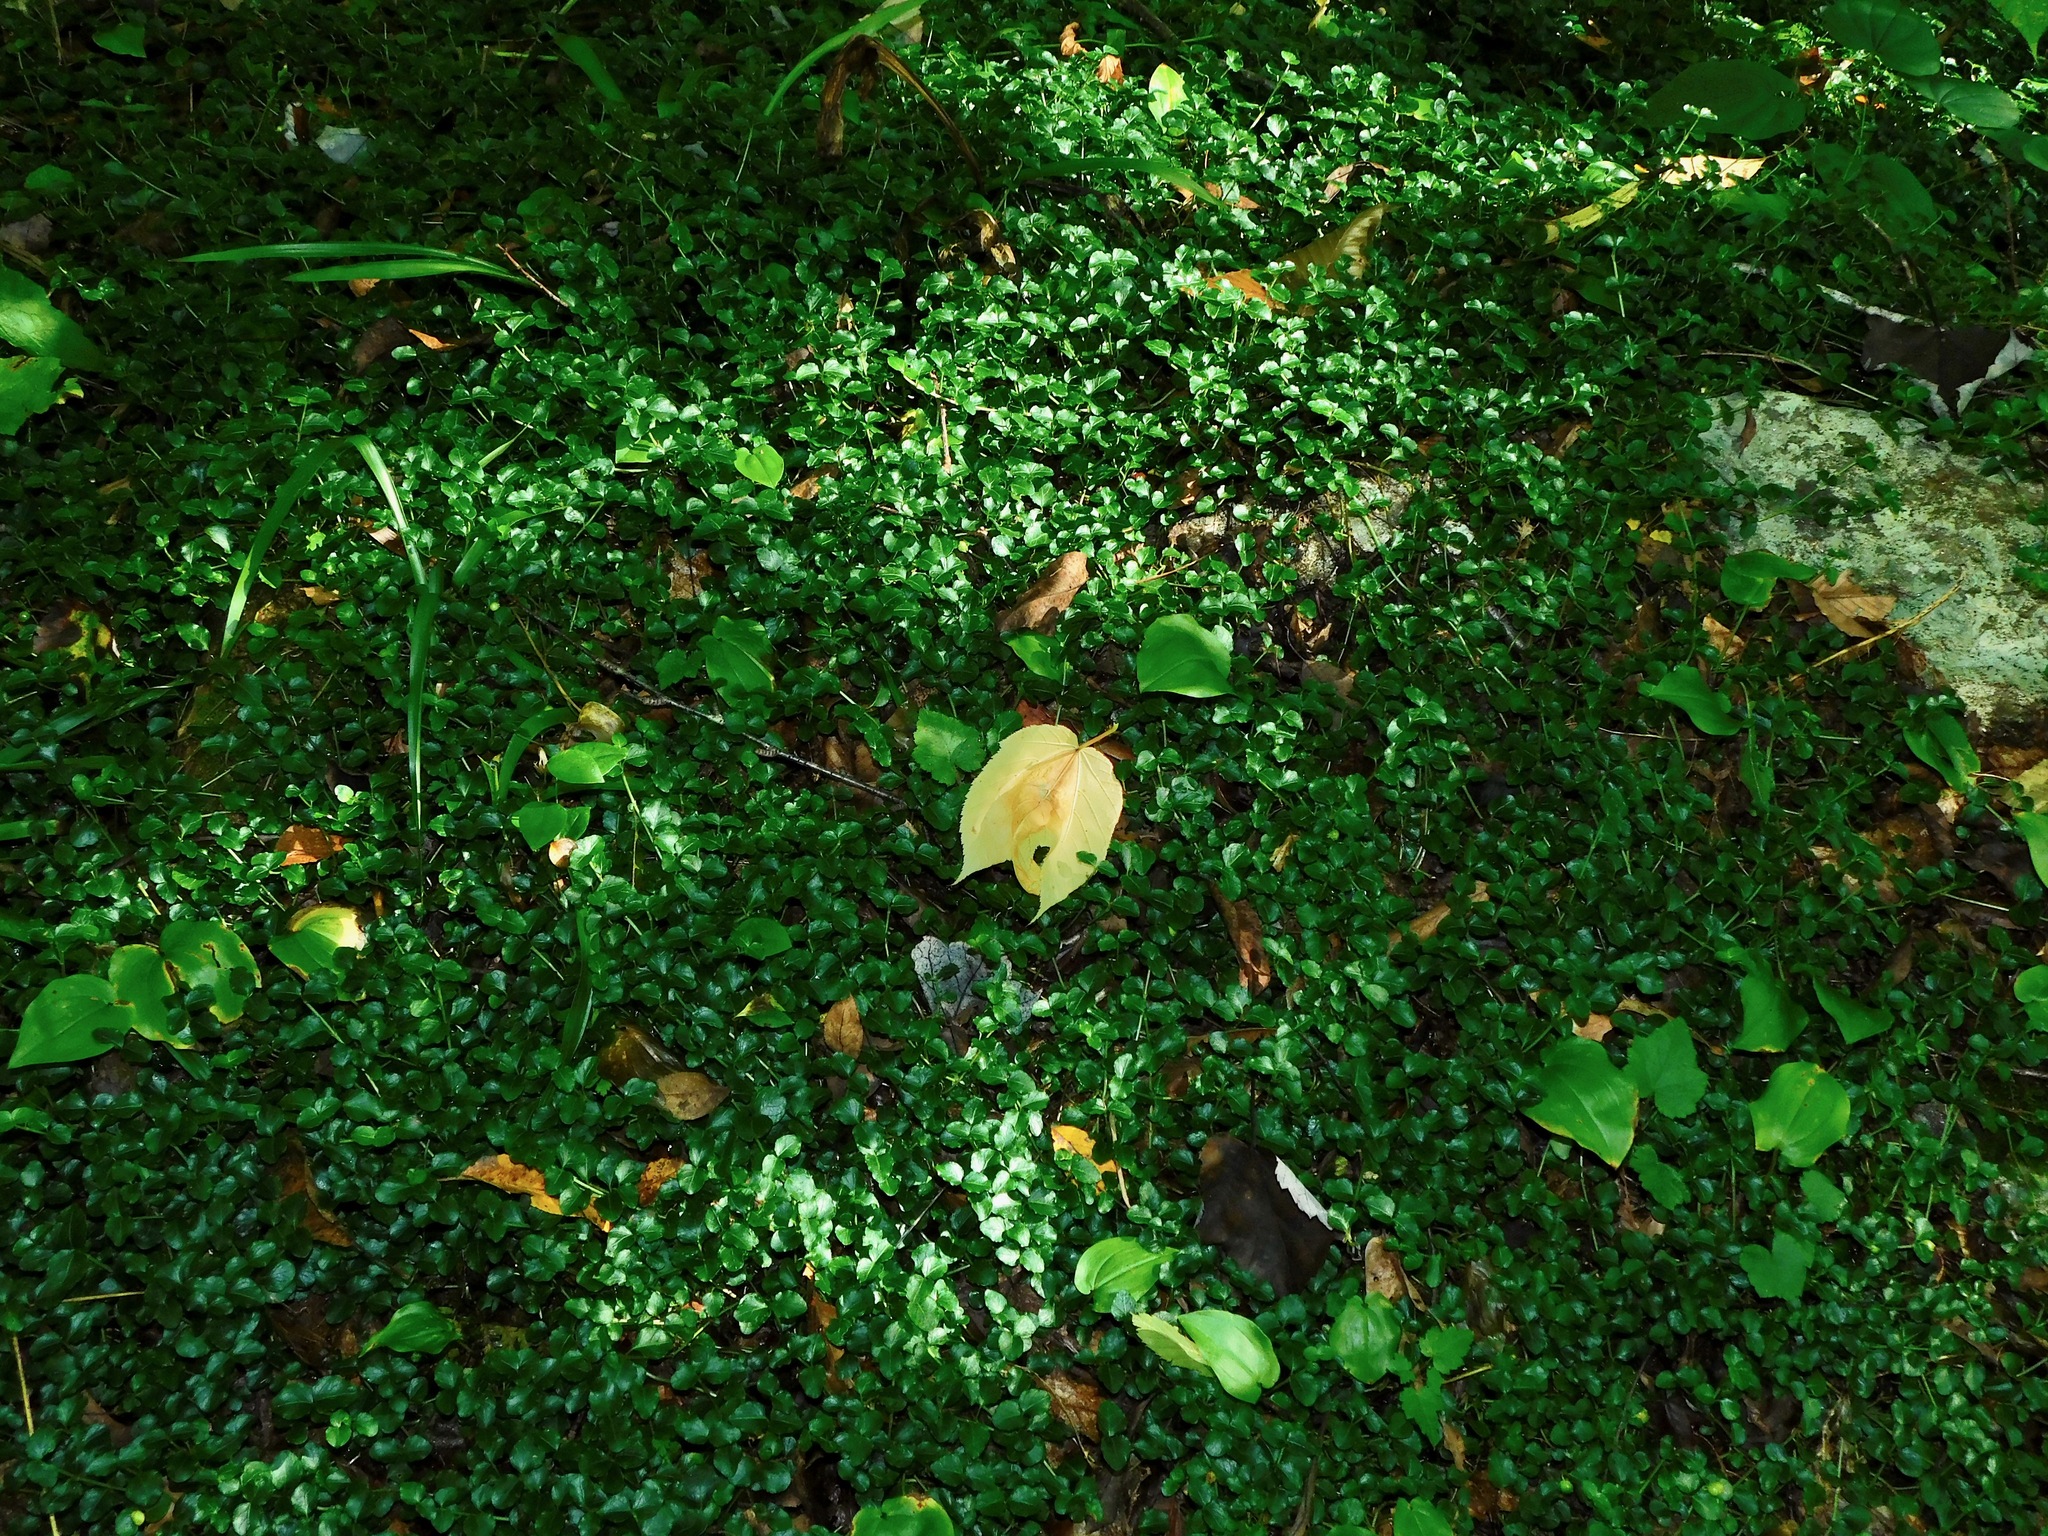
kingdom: Plantae
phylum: Tracheophyta
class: Magnoliopsida
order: Gentianales
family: Rubiaceae
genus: Mitchella
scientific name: Mitchella repens
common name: Partridge-berry
